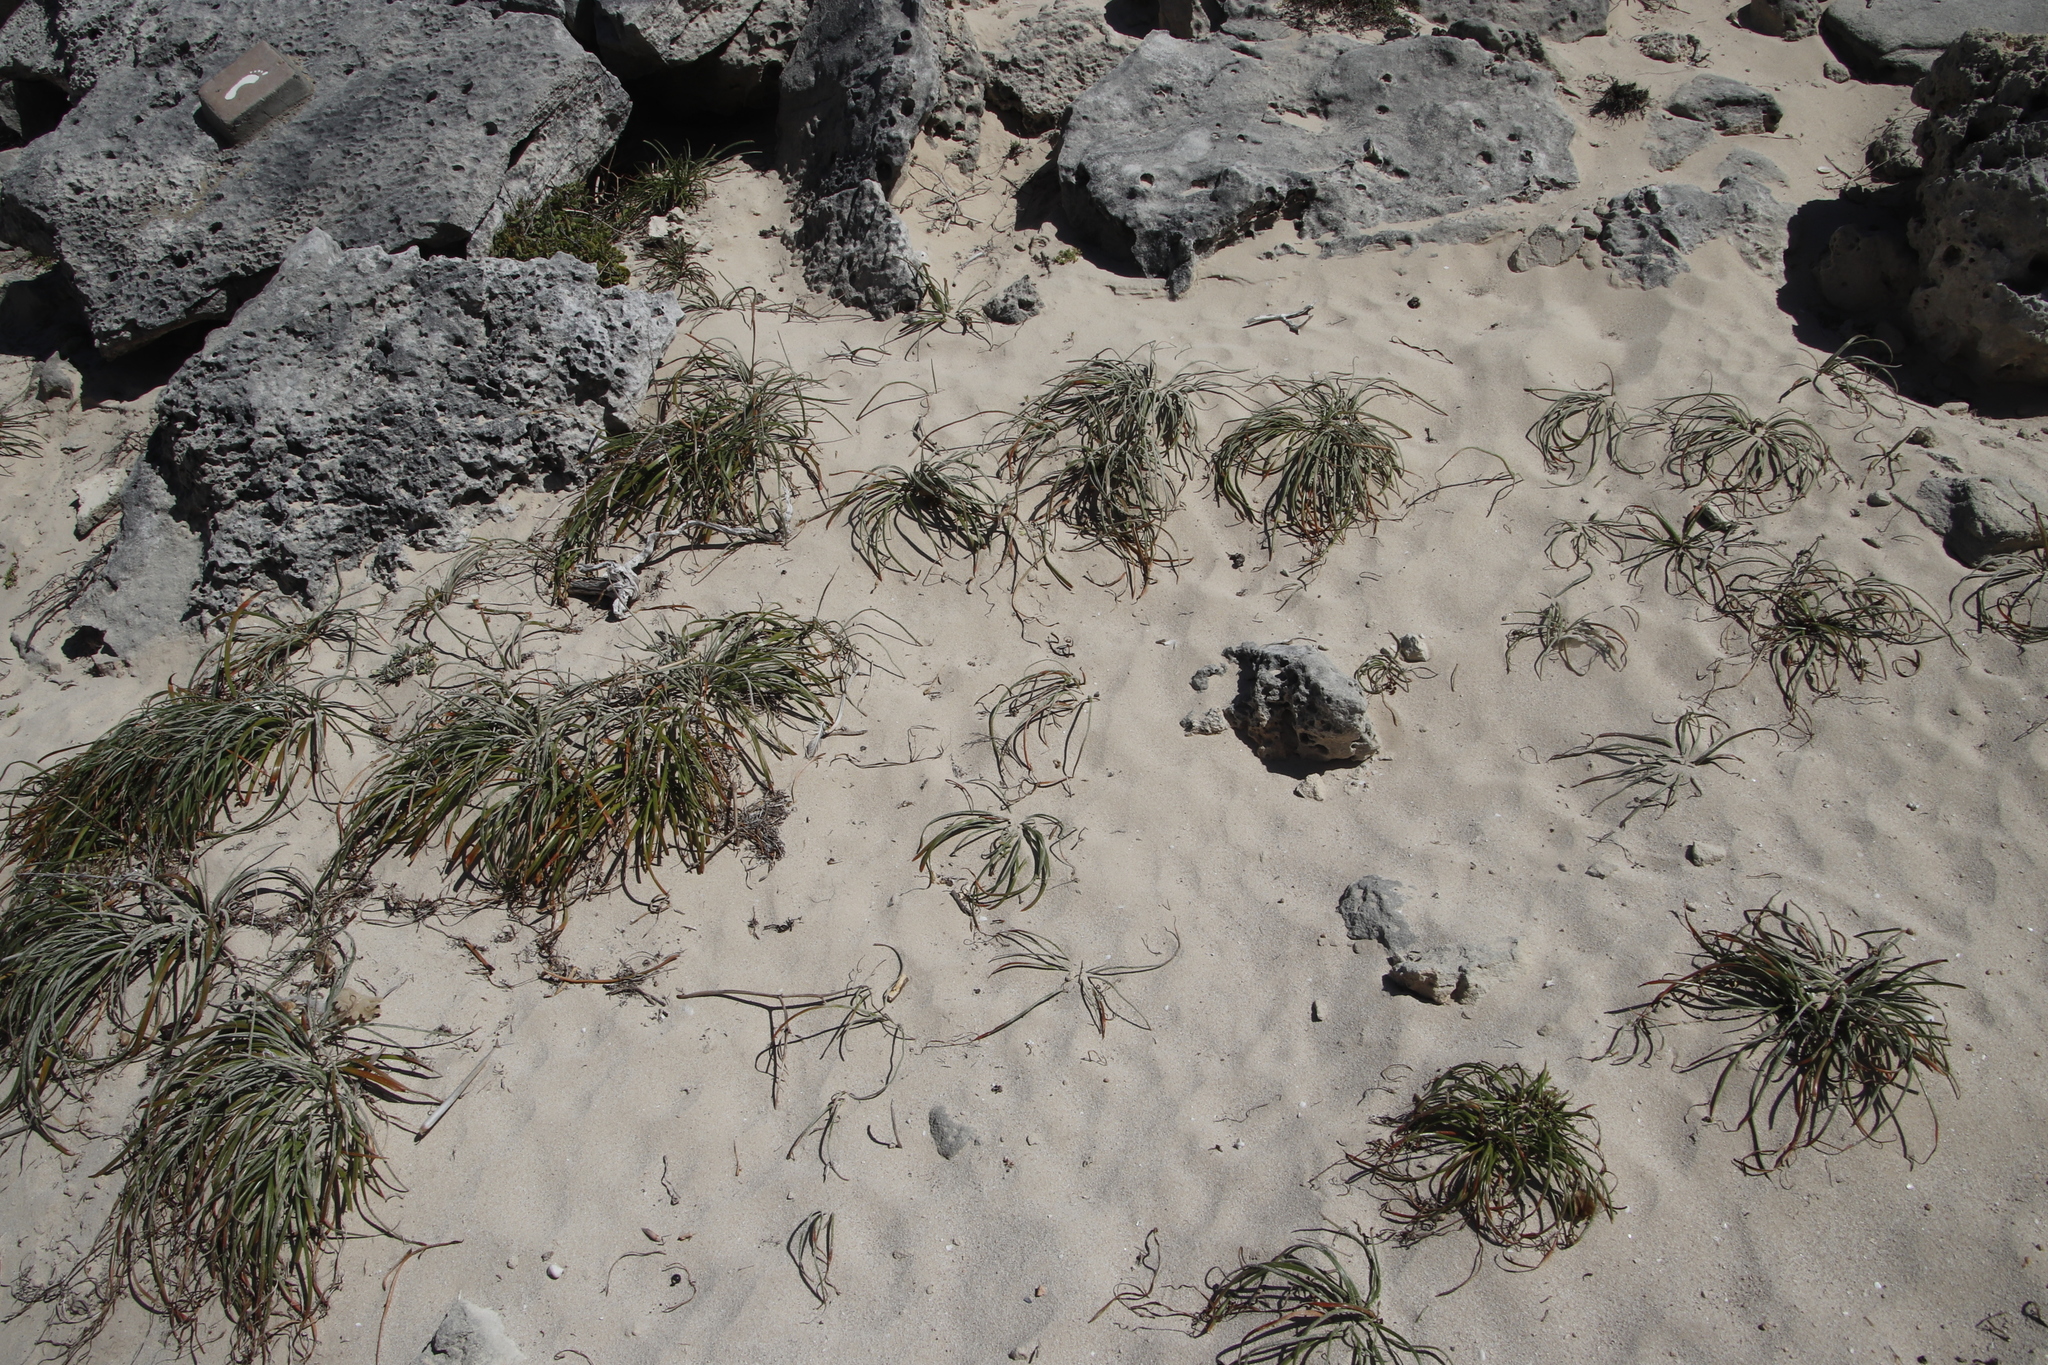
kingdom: Plantae
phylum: Tracheophyta
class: Liliopsida
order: Asparagales
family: Asphodelaceae
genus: Trachyandra
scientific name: Trachyandra divaricata
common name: Dune onionweed
